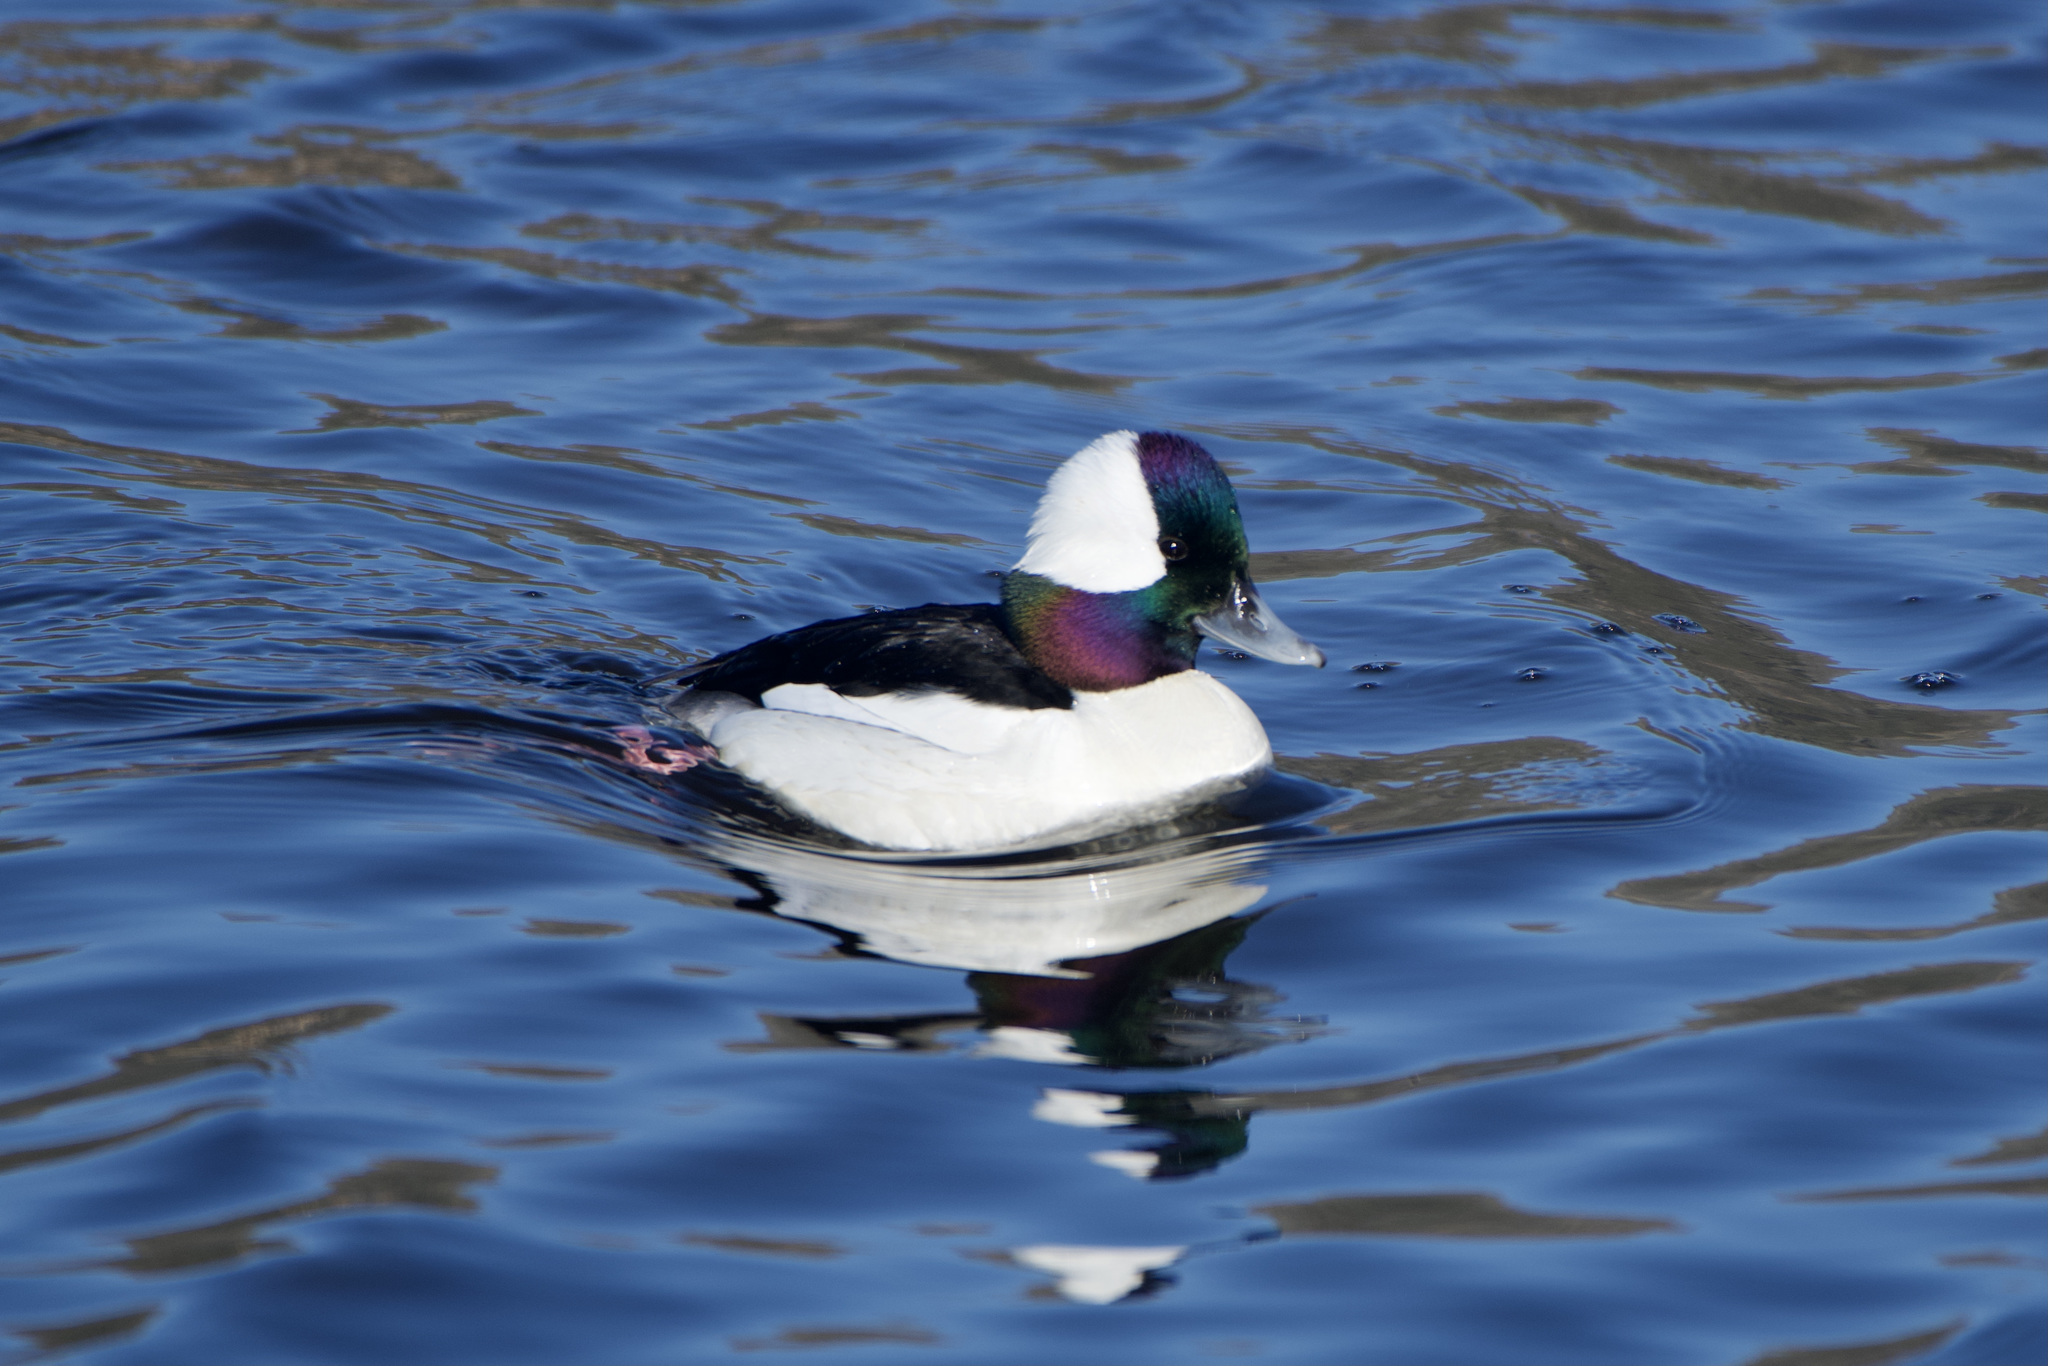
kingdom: Animalia
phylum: Chordata
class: Aves
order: Anseriformes
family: Anatidae
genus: Bucephala
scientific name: Bucephala albeola
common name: Bufflehead
